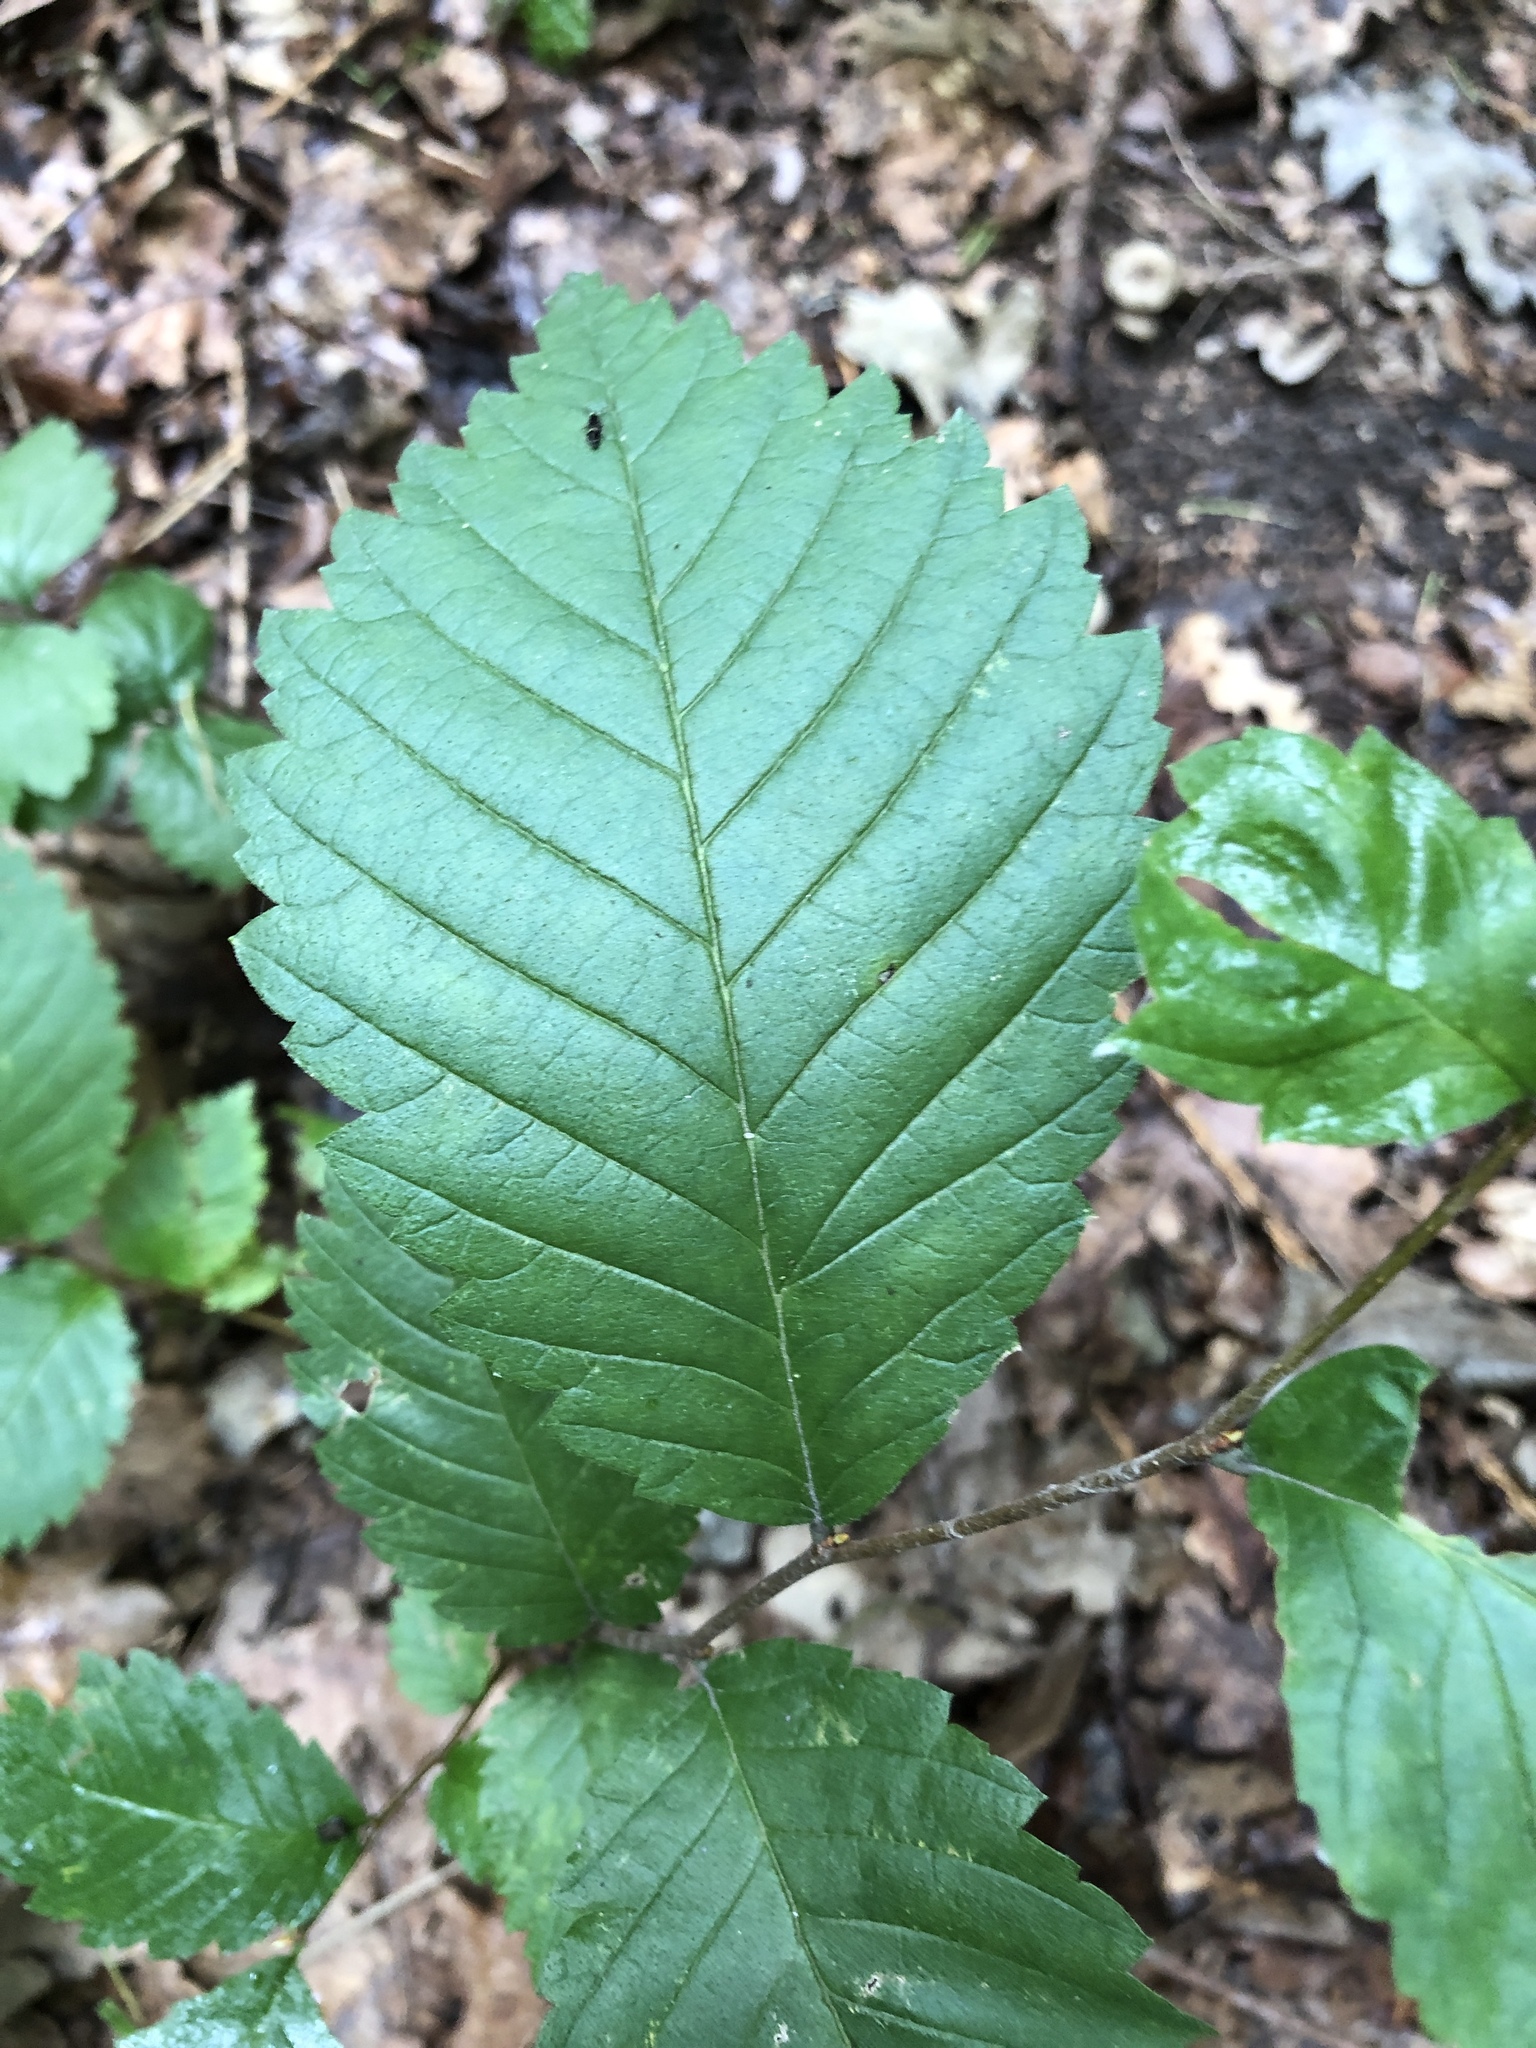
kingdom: Plantae
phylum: Tracheophyta
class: Magnoliopsida
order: Rosales
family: Ulmaceae
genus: Ulmus
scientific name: Ulmus glabra
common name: Wych elm
